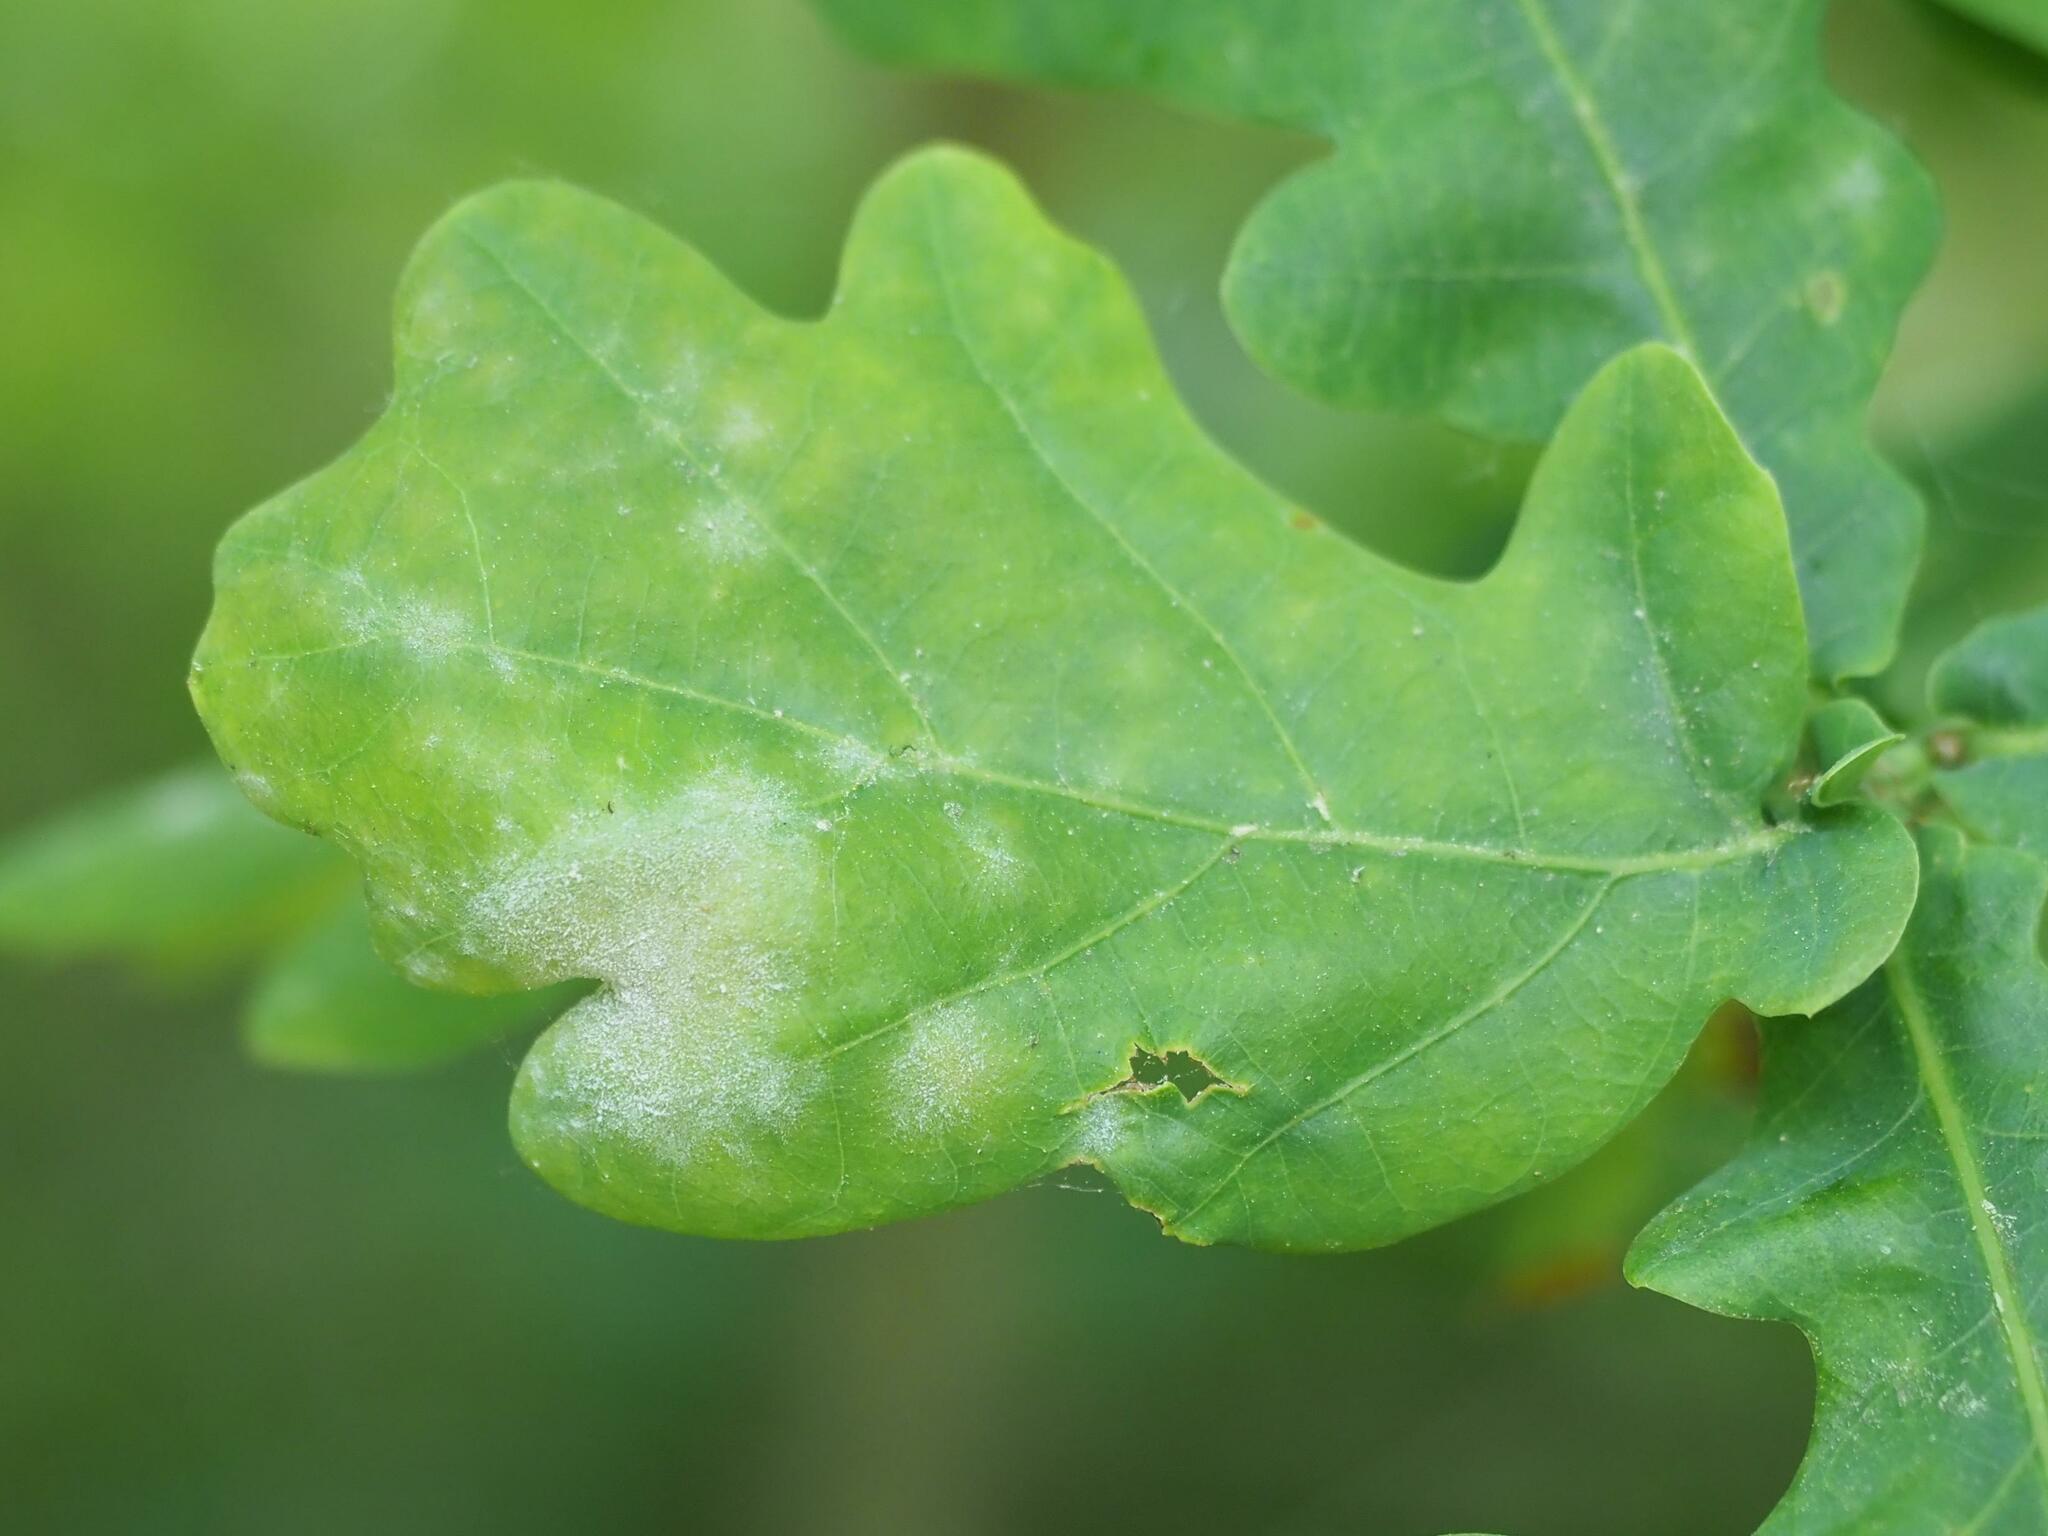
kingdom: Fungi
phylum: Ascomycota
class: Leotiomycetes
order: Helotiales
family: Erysiphaceae
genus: Erysiphe
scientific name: Erysiphe
